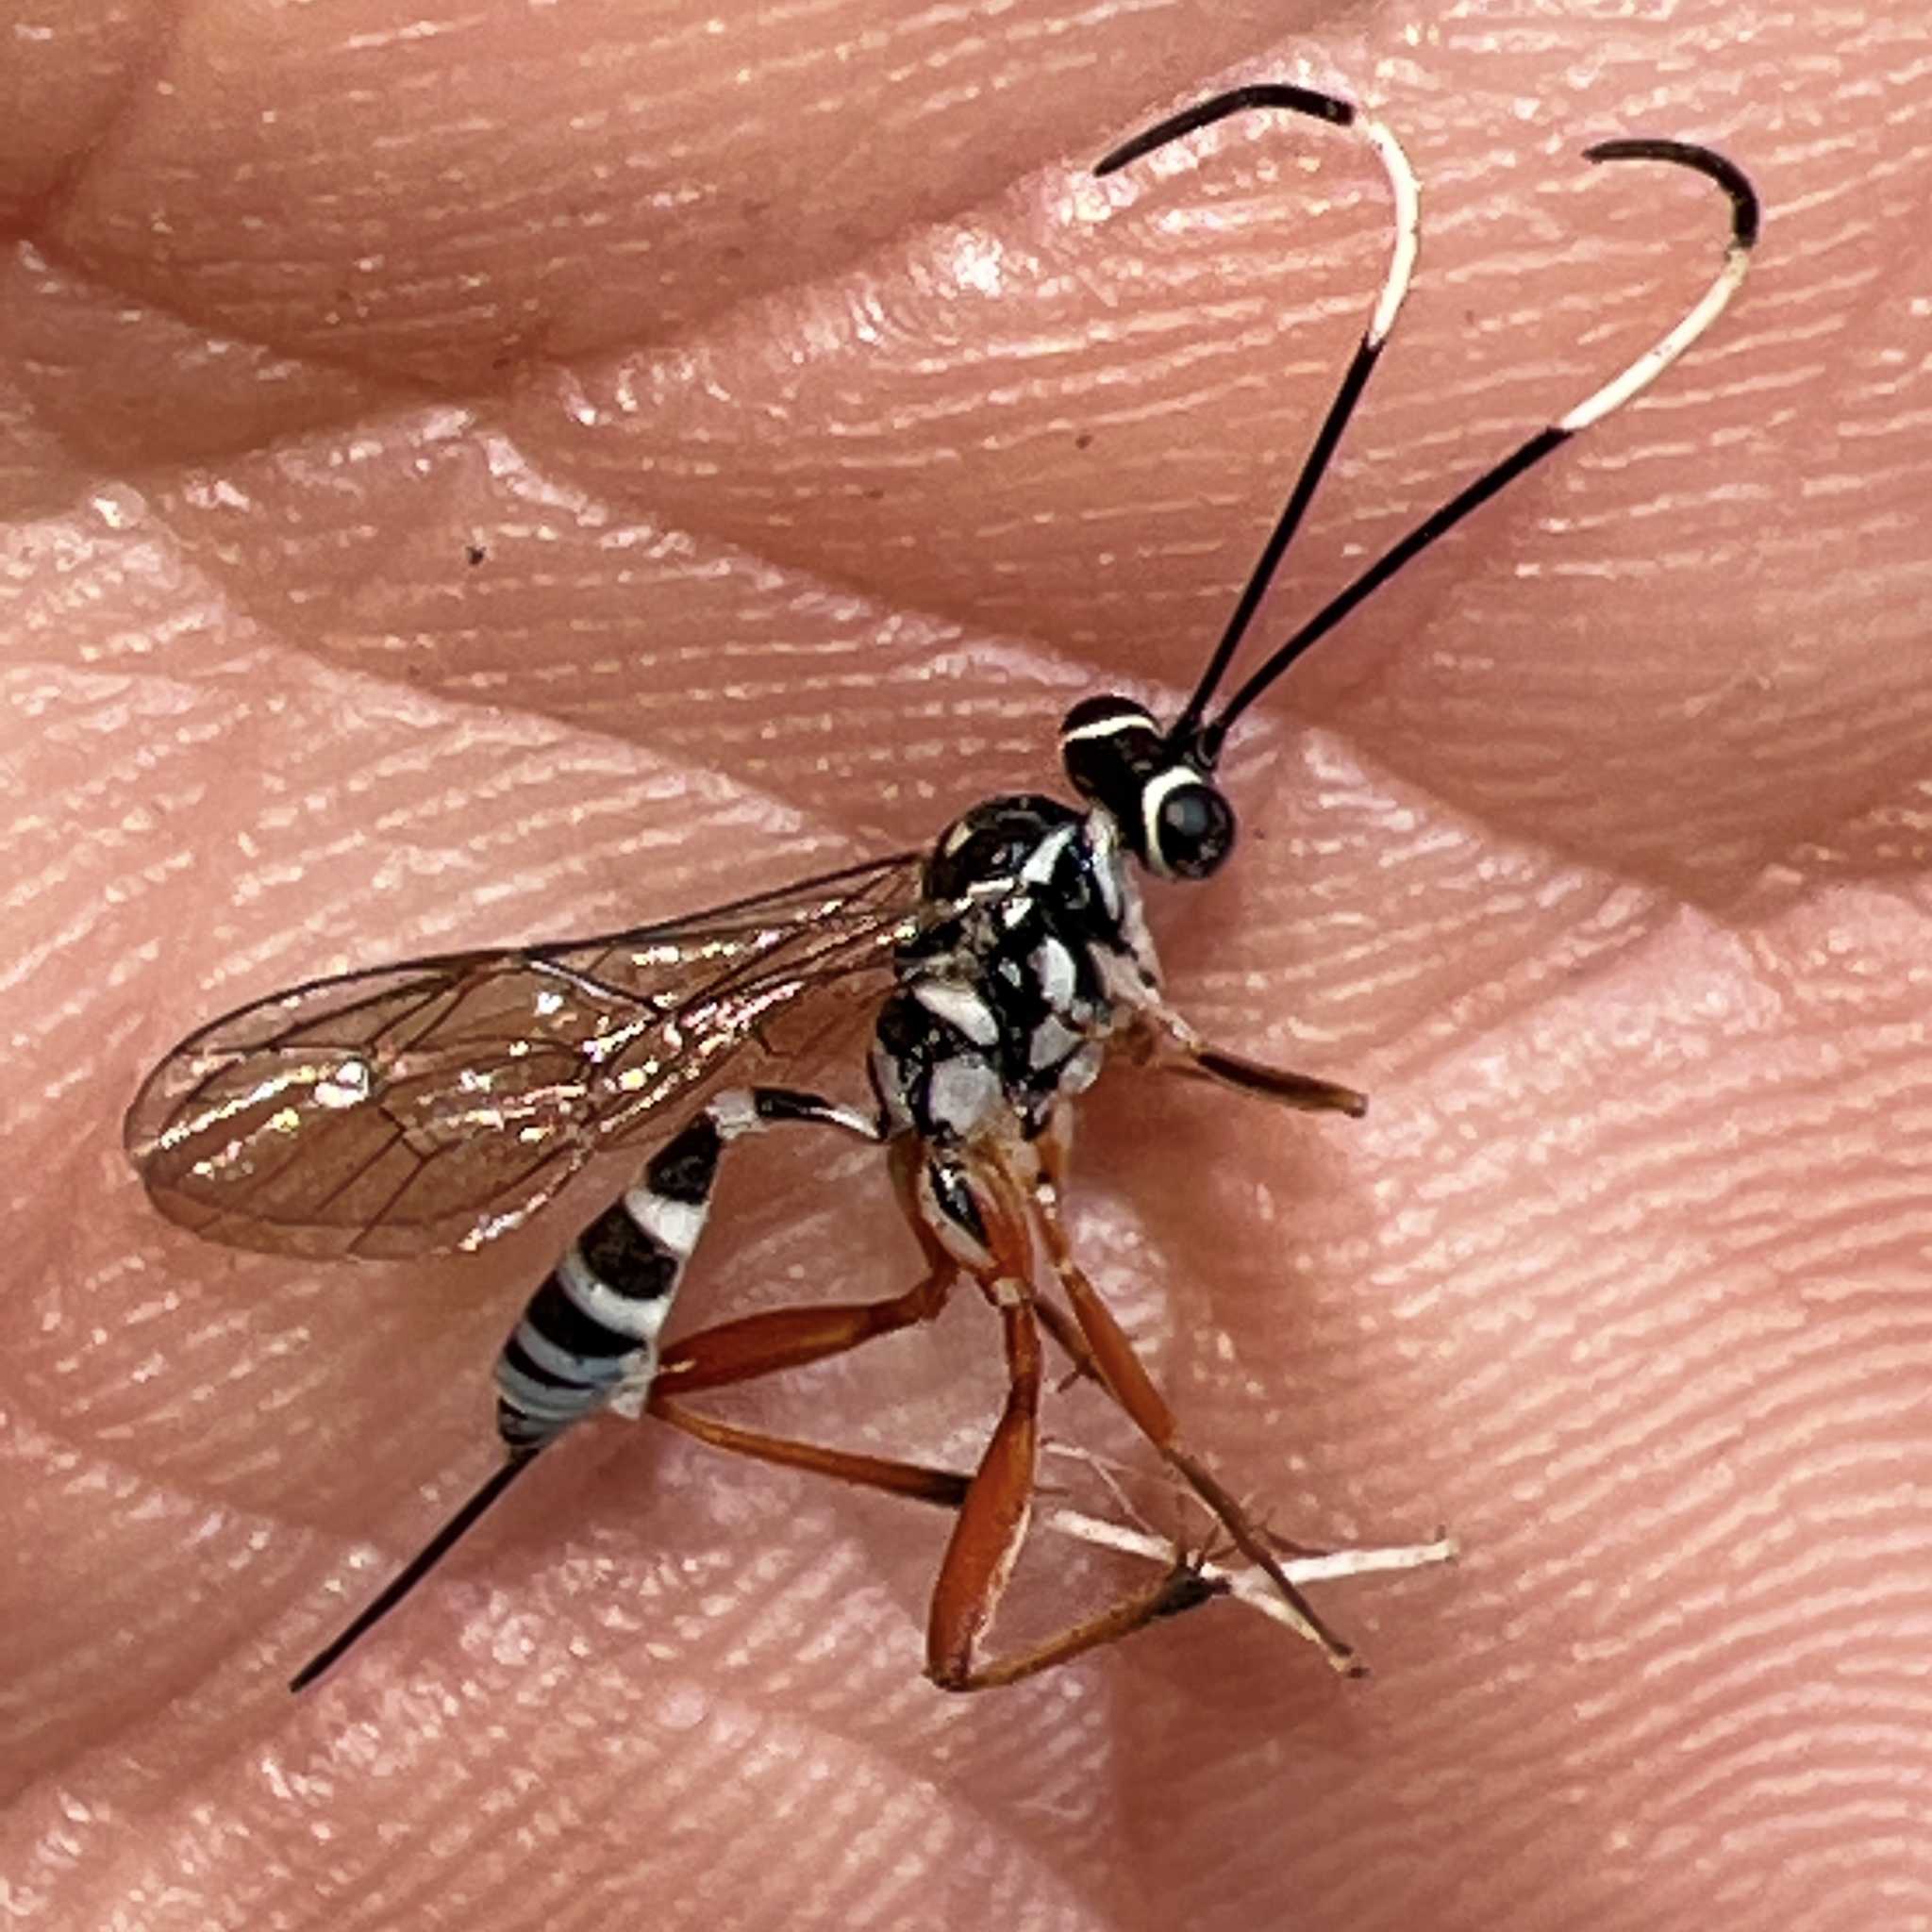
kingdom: Animalia
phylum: Arthropoda
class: Insecta
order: Hymenoptera
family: Ichneumonidae
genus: Messatoporus
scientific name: Messatoporus discoidalis
